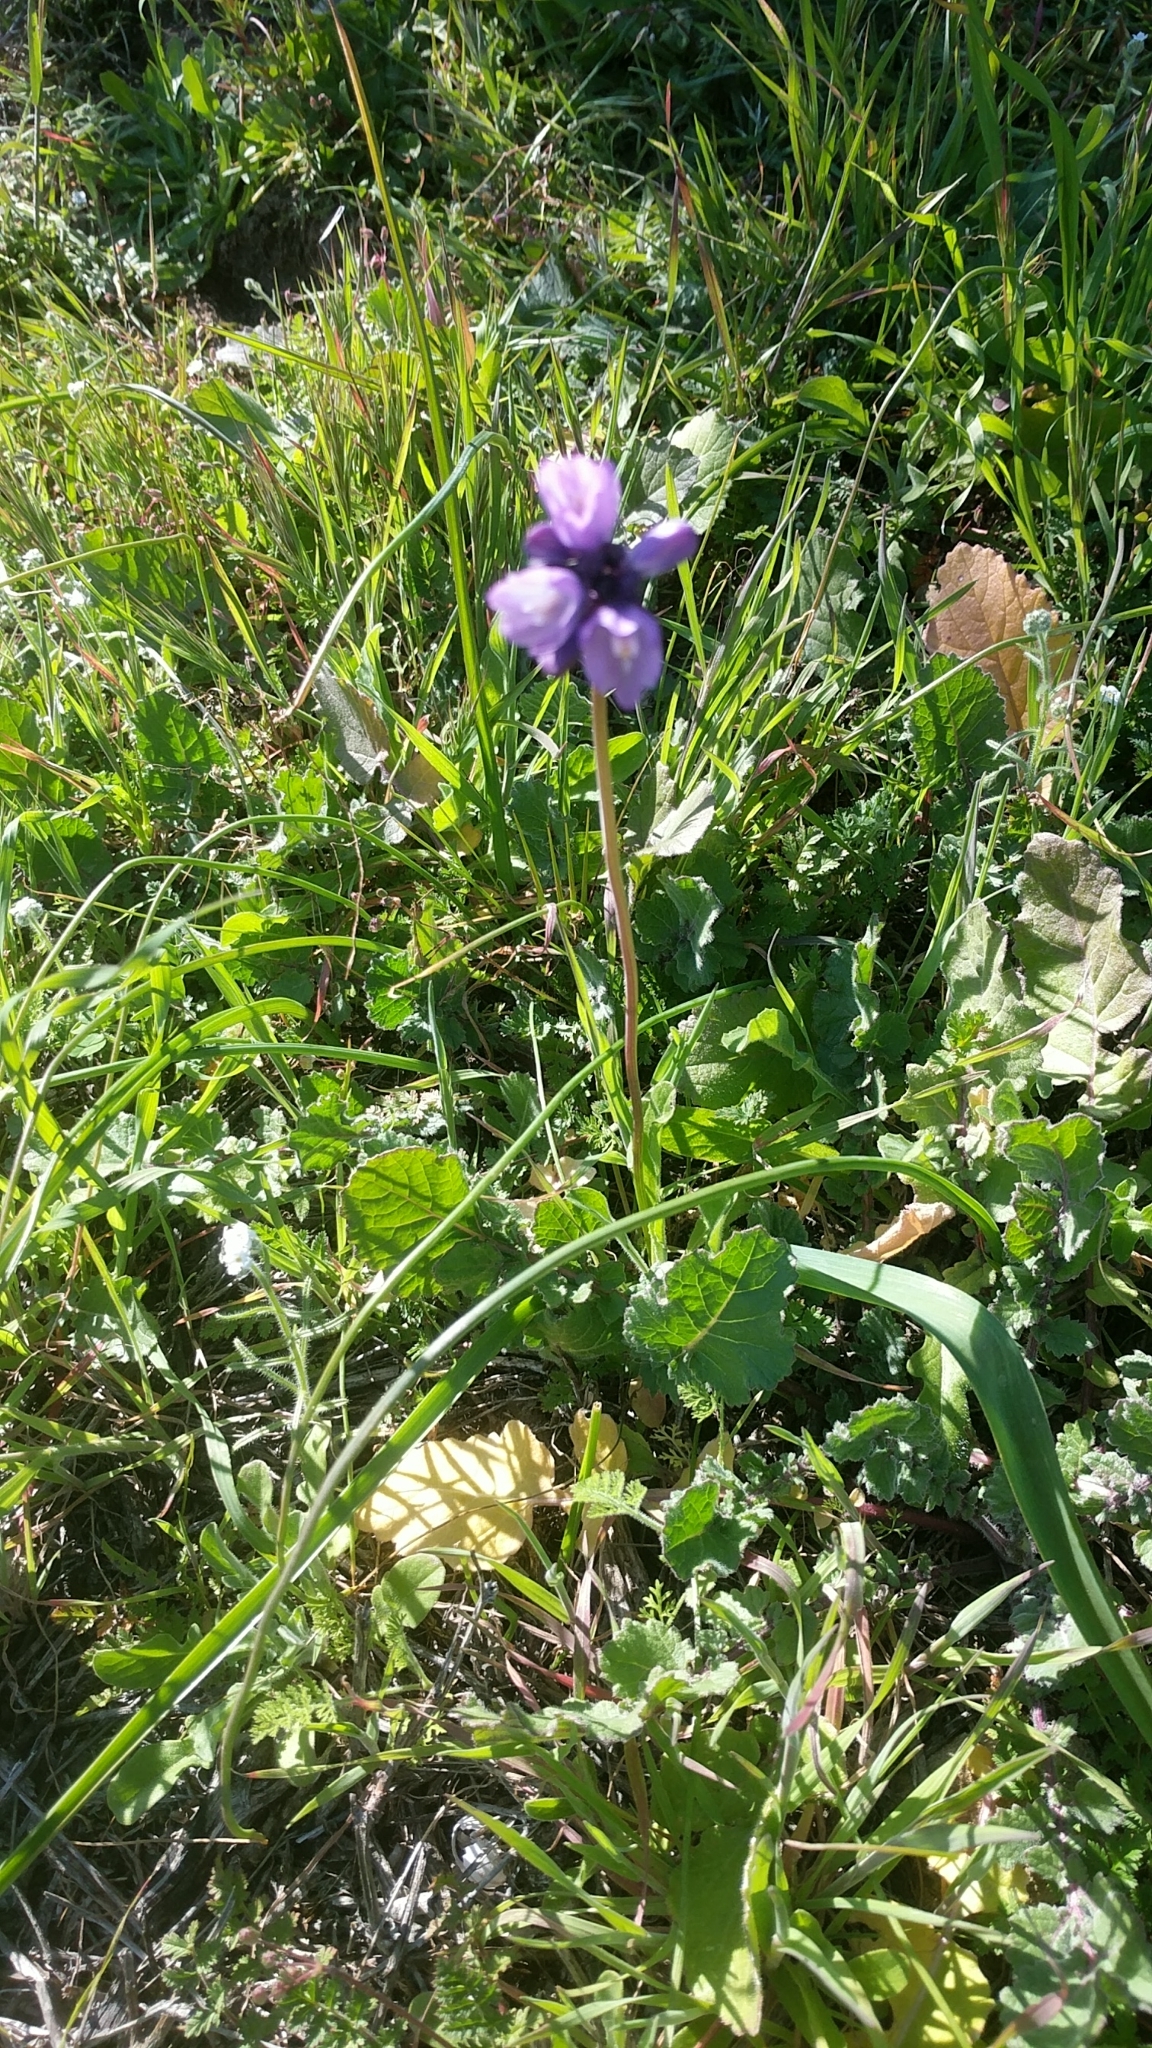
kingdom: Plantae
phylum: Tracheophyta
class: Liliopsida
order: Asparagales
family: Asparagaceae
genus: Dipterostemon
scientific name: Dipterostemon capitatus
